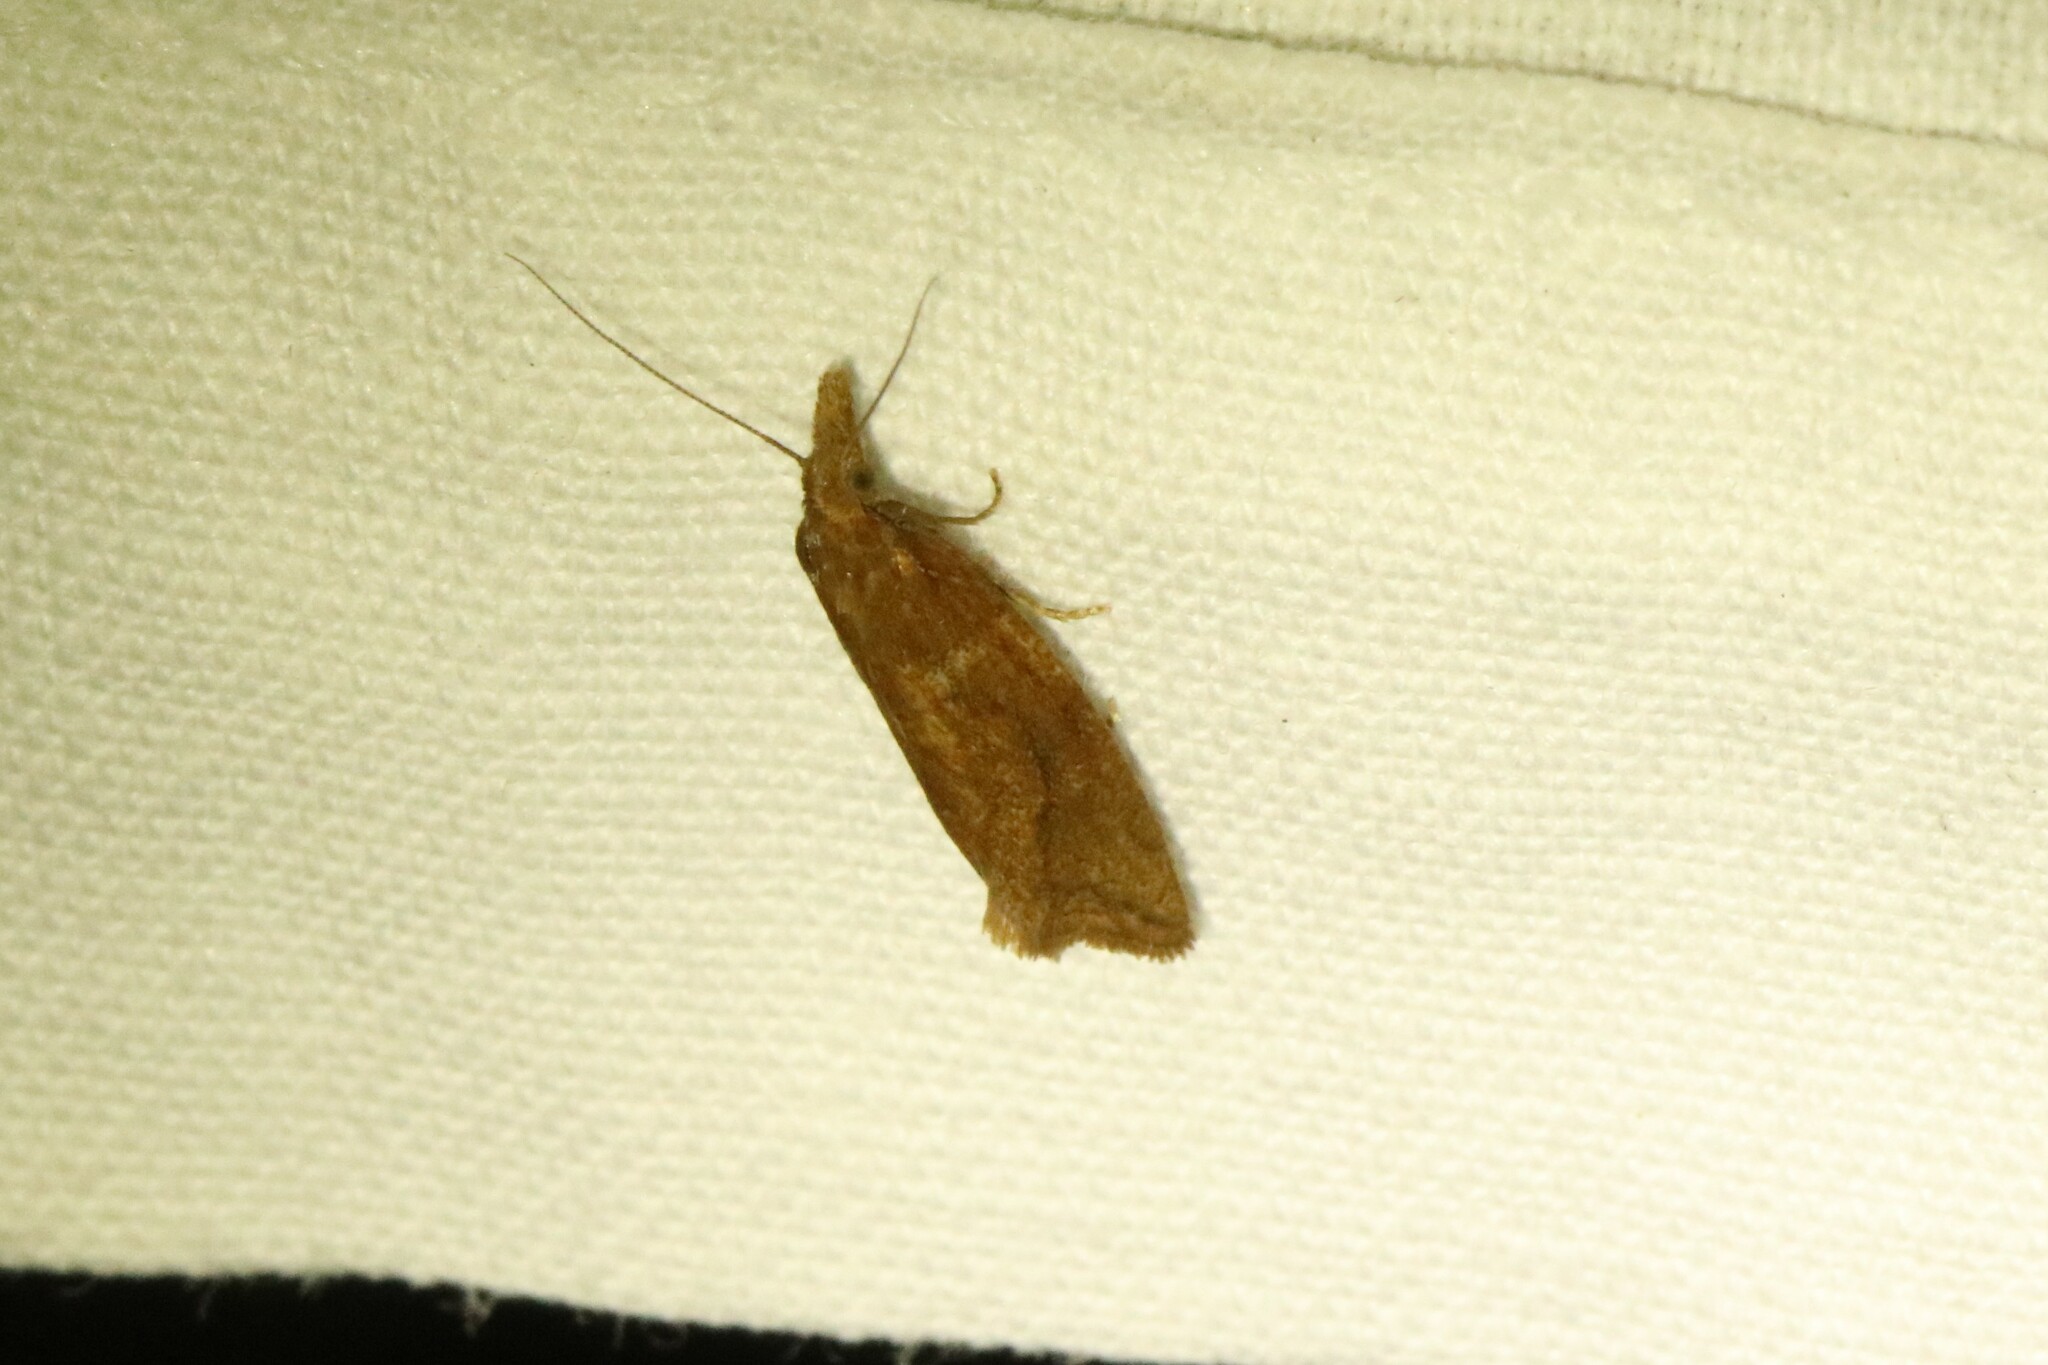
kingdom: Animalia
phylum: Arthropoda
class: Insecta
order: Lepidoptera
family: Tortricidae
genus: Aethes
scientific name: Aethes biscana
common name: Reddish aethes
